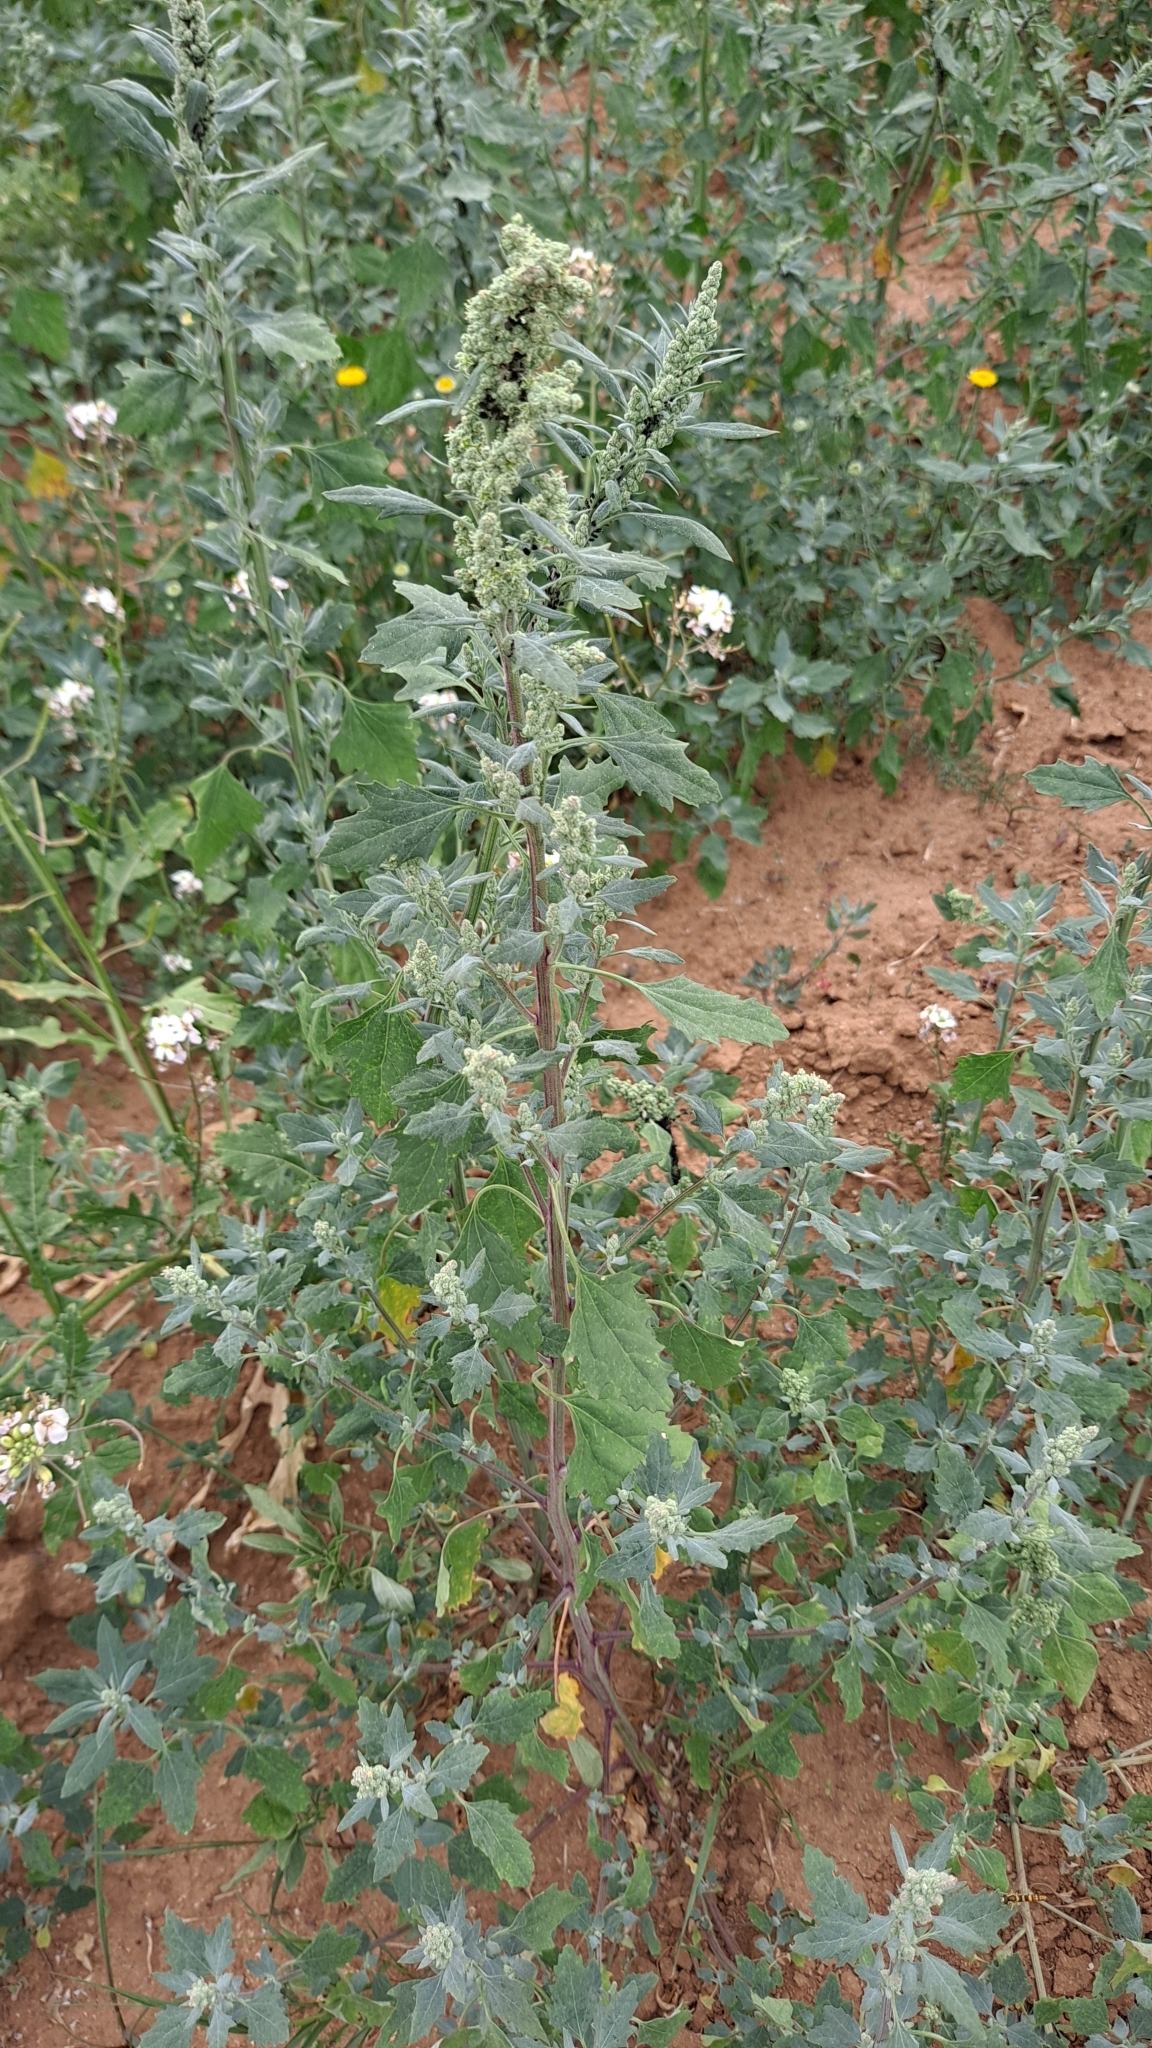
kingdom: Plantae
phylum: Tracheophyta
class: Magnoliopsida
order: Caryophyllales
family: Amaranthaceae
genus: Chenopodium
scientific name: Chenopodium album
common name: Fat-hen
